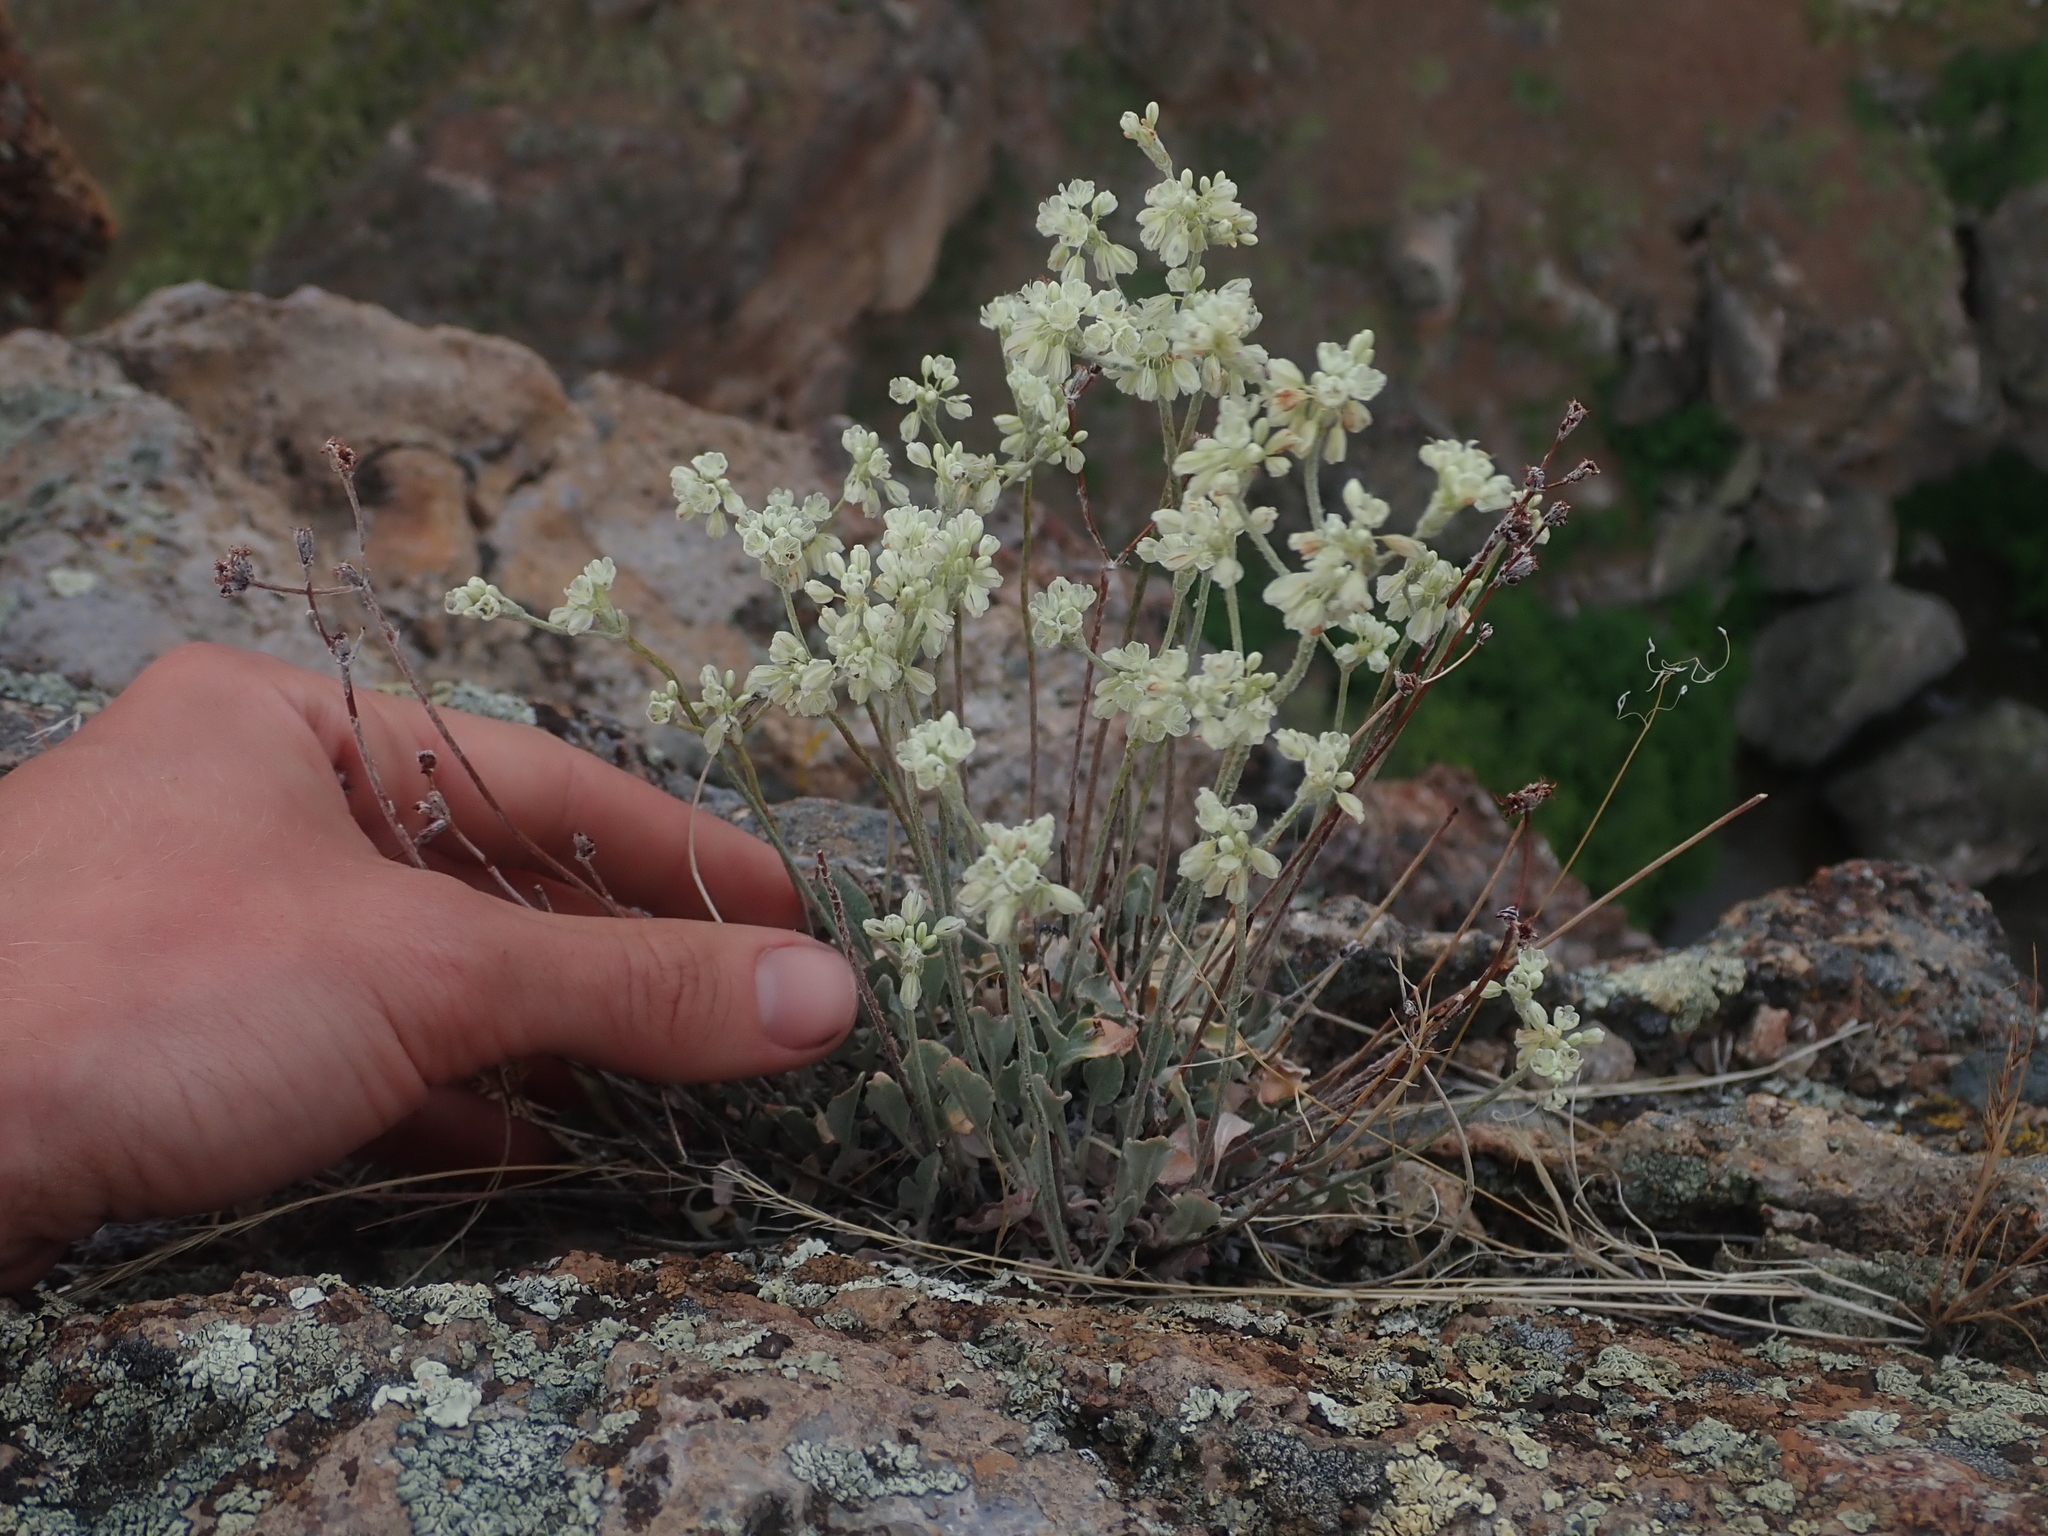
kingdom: Plantae
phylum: Tracheophyta
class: Magnoliopsida
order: Caryophyllales
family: Polygonaceae
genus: Eriogonum
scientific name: Eriogonum strictum
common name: Blue mountain buckwheat
